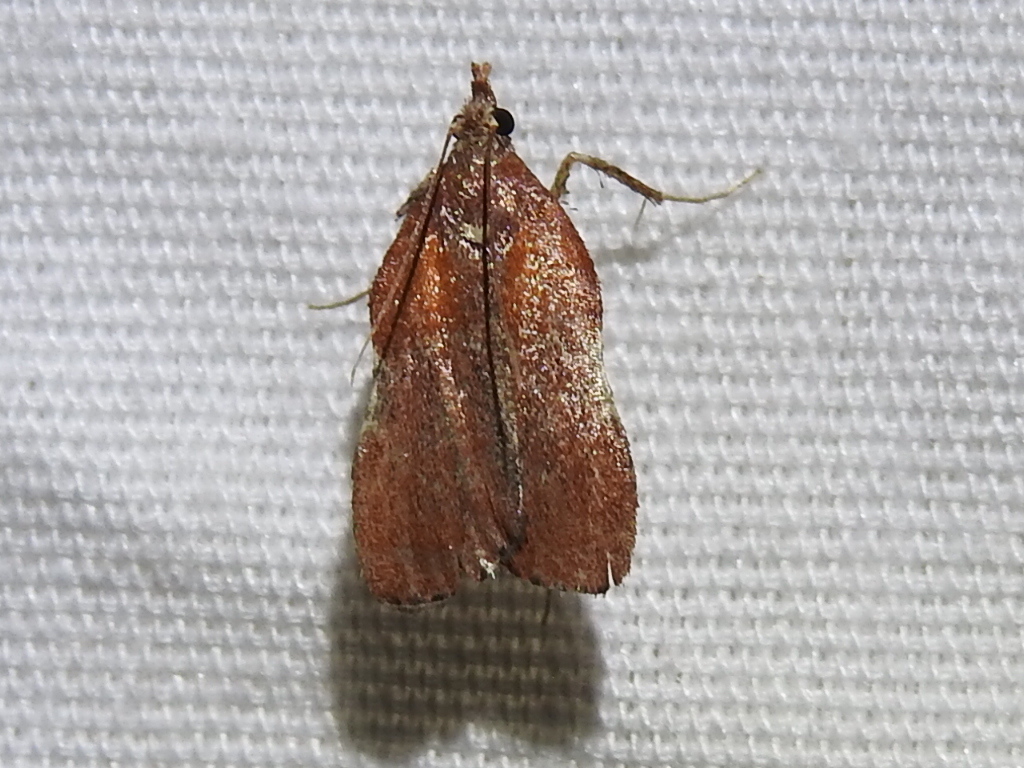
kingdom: Animalia
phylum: Arthropoda
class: Insecta
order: Lepidoptera
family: Pyralidae
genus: Galasa
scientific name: Galasa nigrinodis
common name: Boxwood leaftier moth
